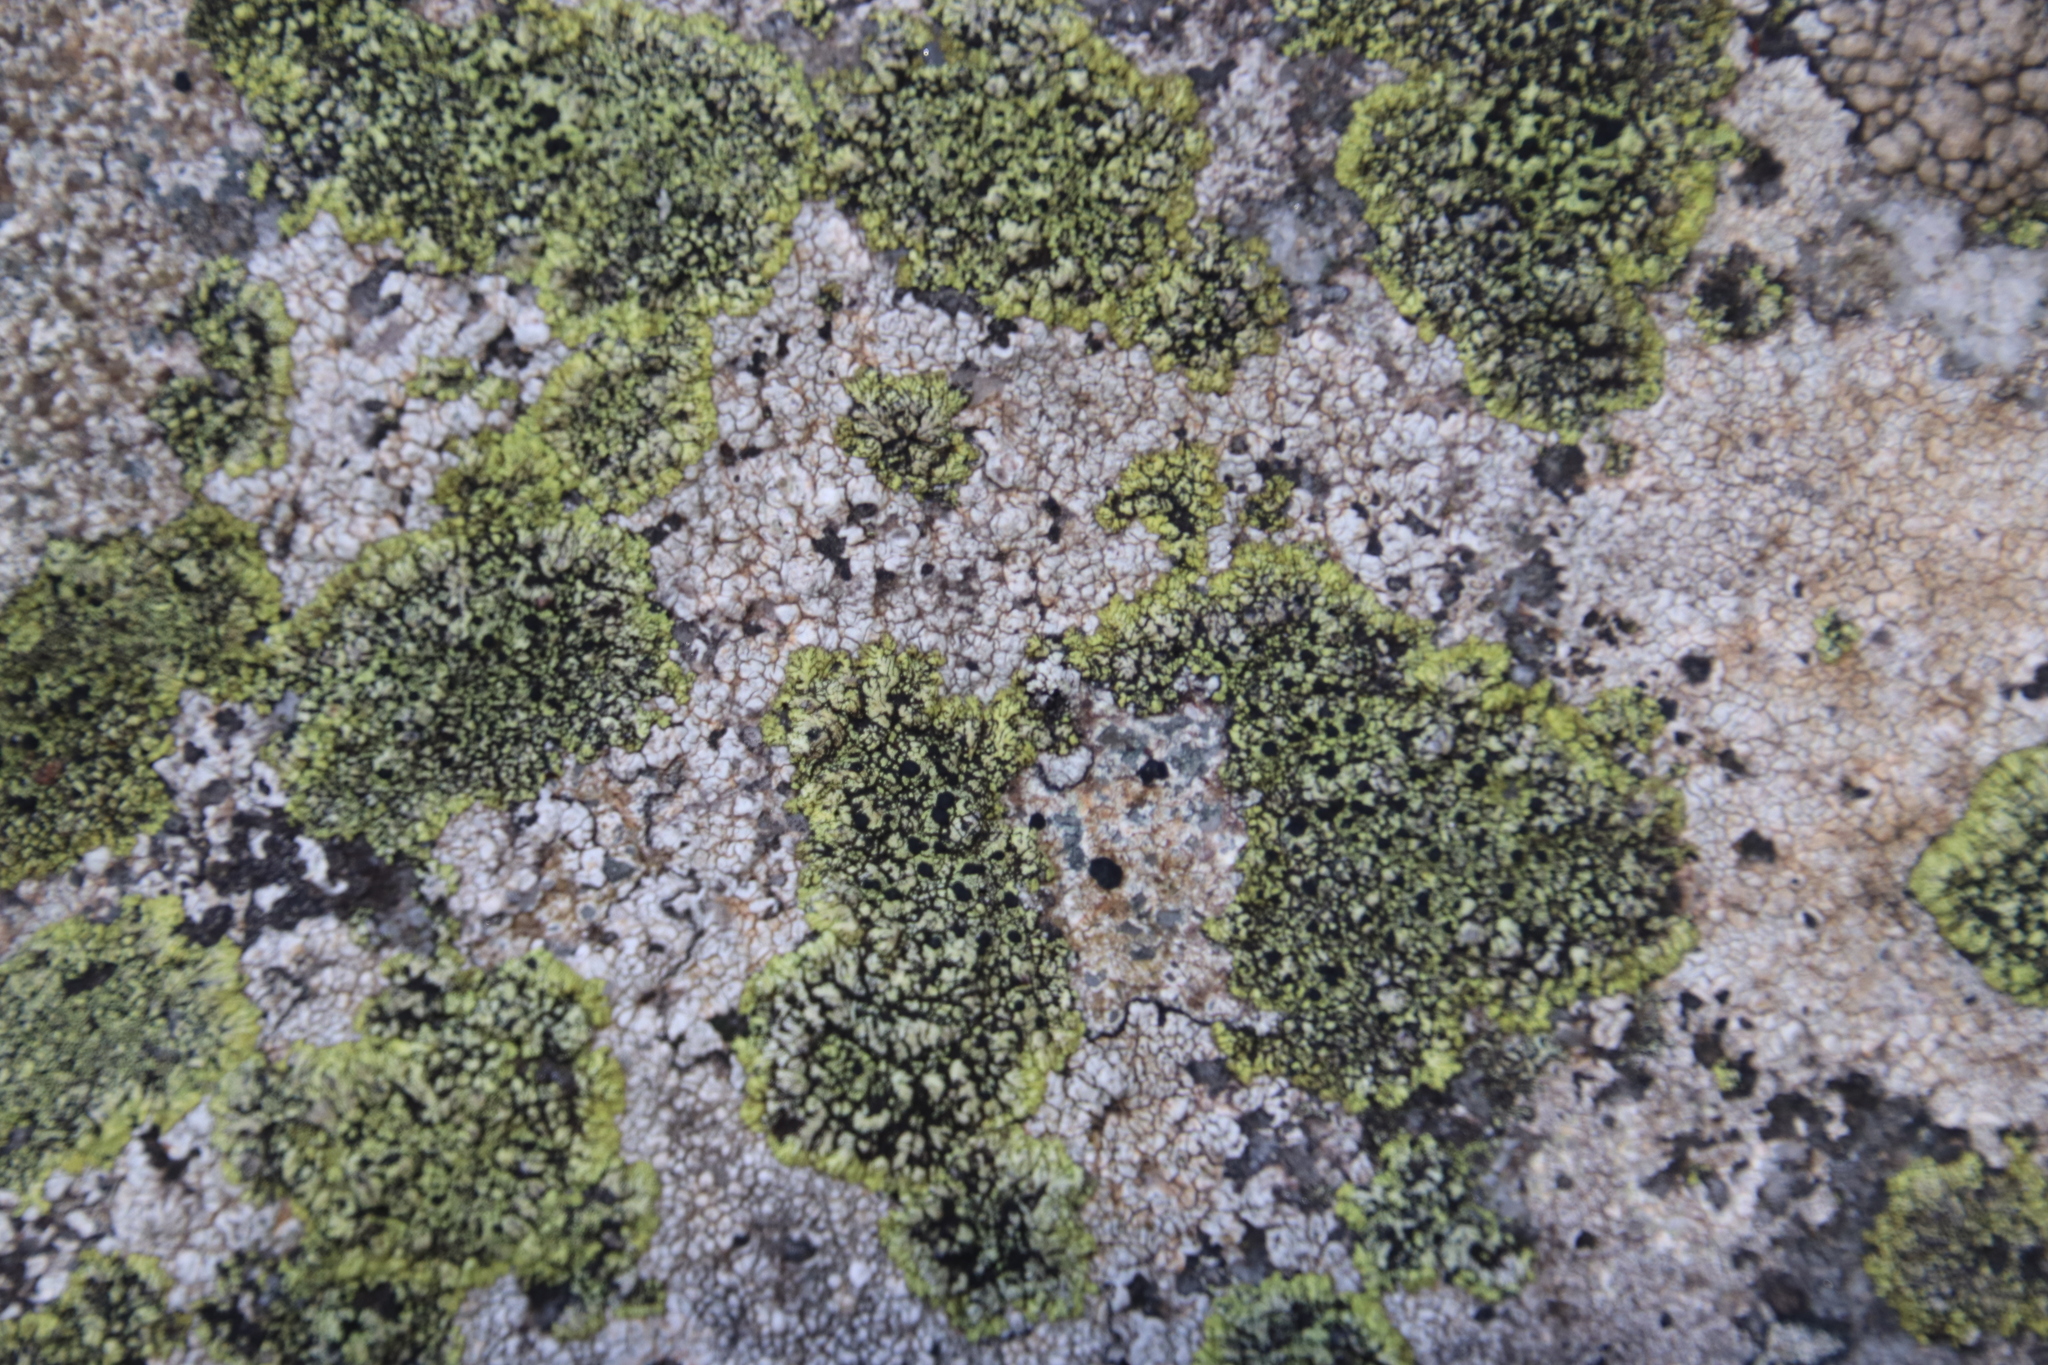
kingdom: Fungi
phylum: Ascomycota
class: Lecanoromycetes
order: Caliciales
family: Caliciaceae
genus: Diploicia
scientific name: Diploicia africana
